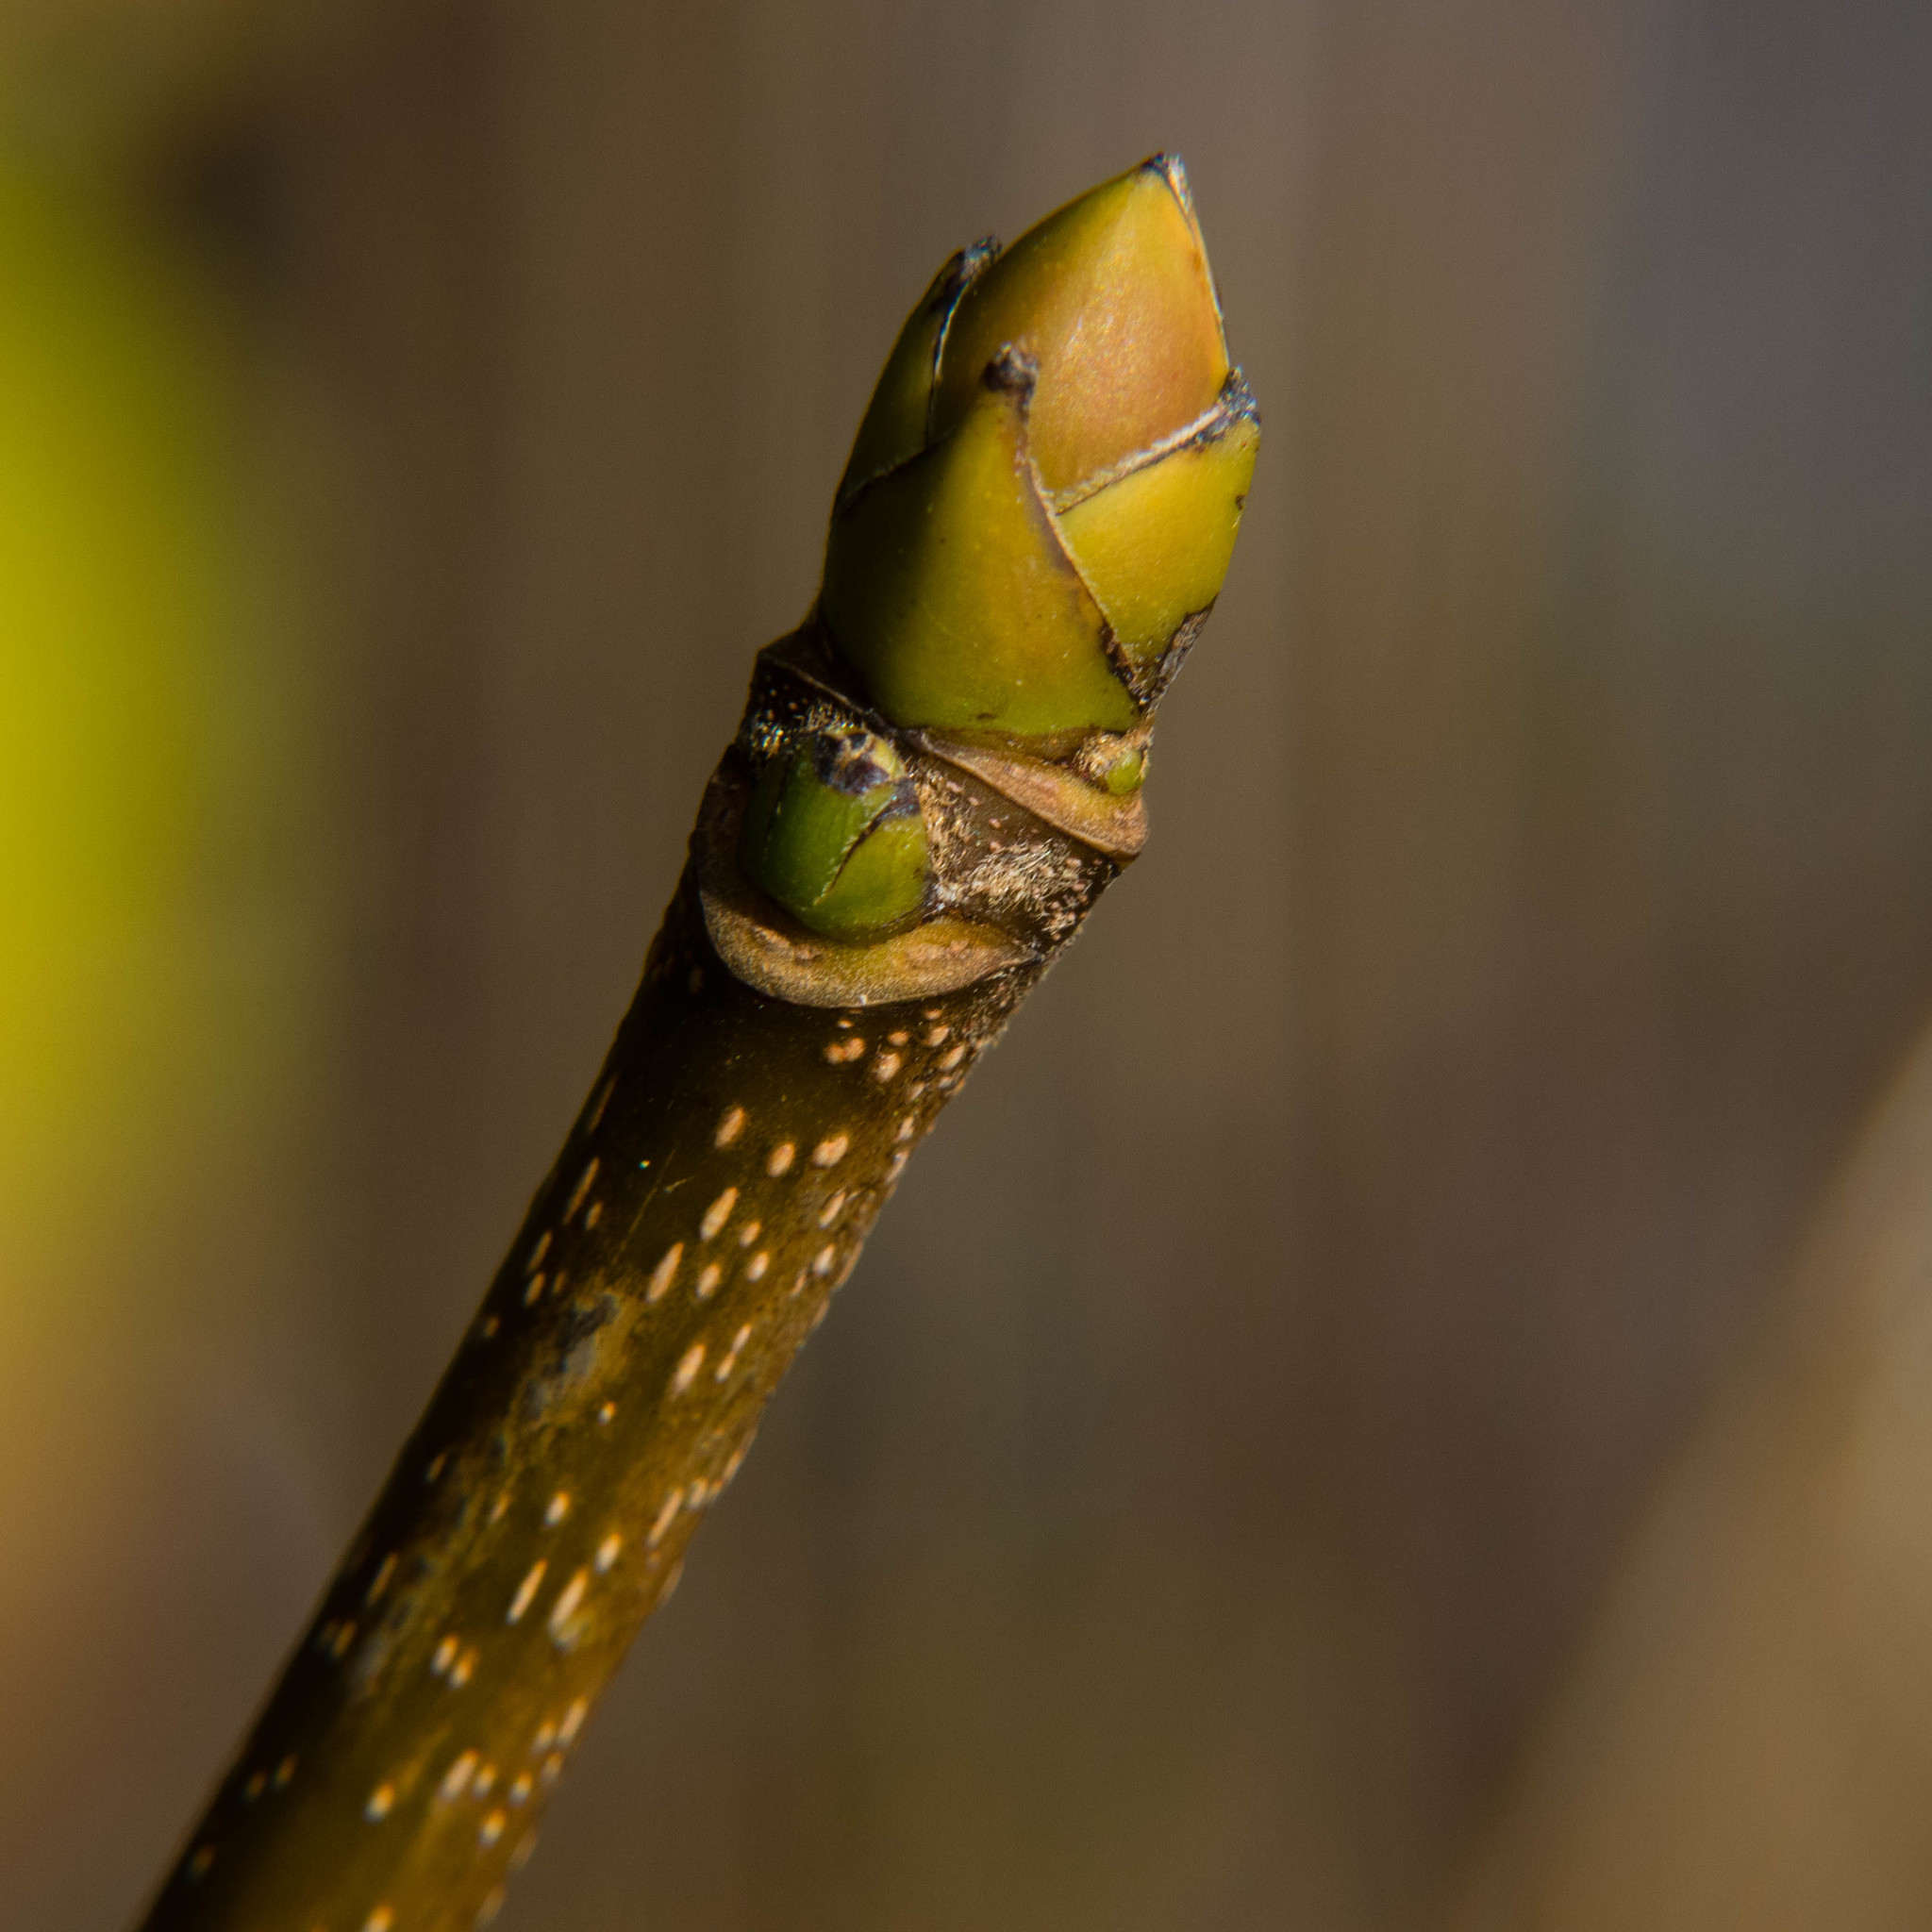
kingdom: Plantae
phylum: Tracheophyta
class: Magnoliopsida
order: Sapindales
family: Sapindaceae
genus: Acer
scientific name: Acer pseudoplatanus
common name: Sycamore
